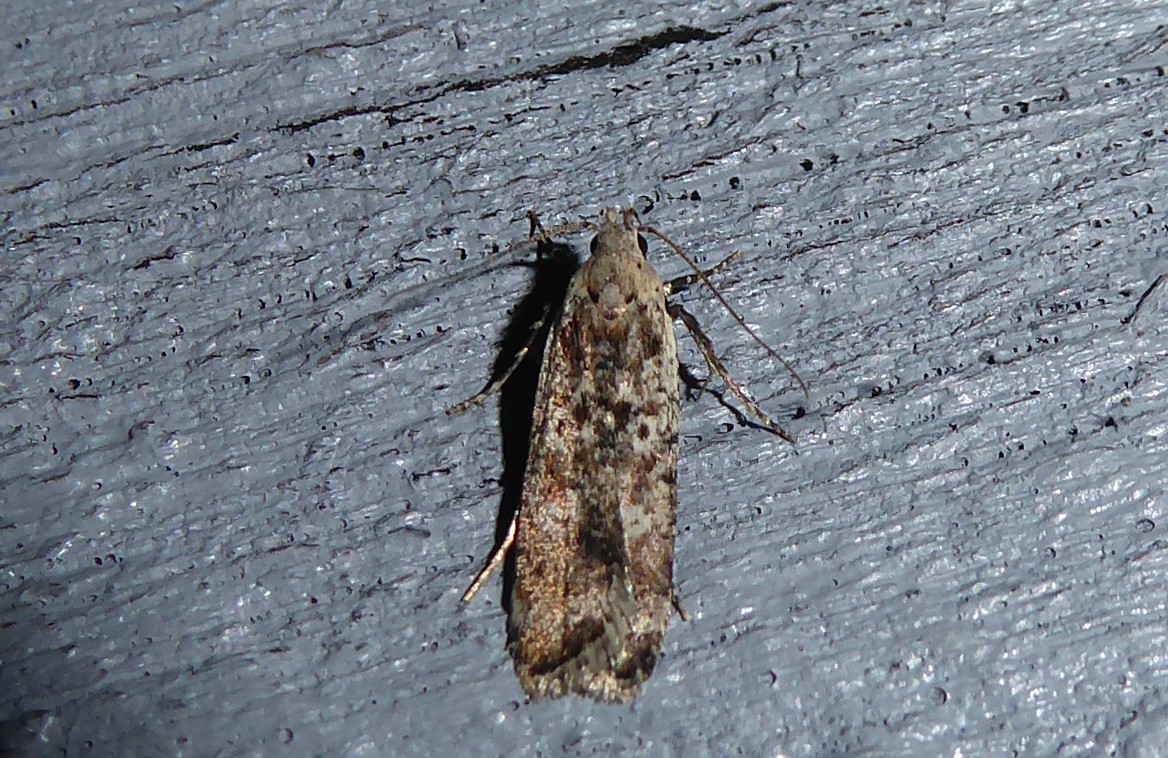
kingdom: Animalia
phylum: Arthropoda
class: Insecta
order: Lepidoptera
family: Gelechiidae
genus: Anisoplaca
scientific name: Anisoplaca achyrota
